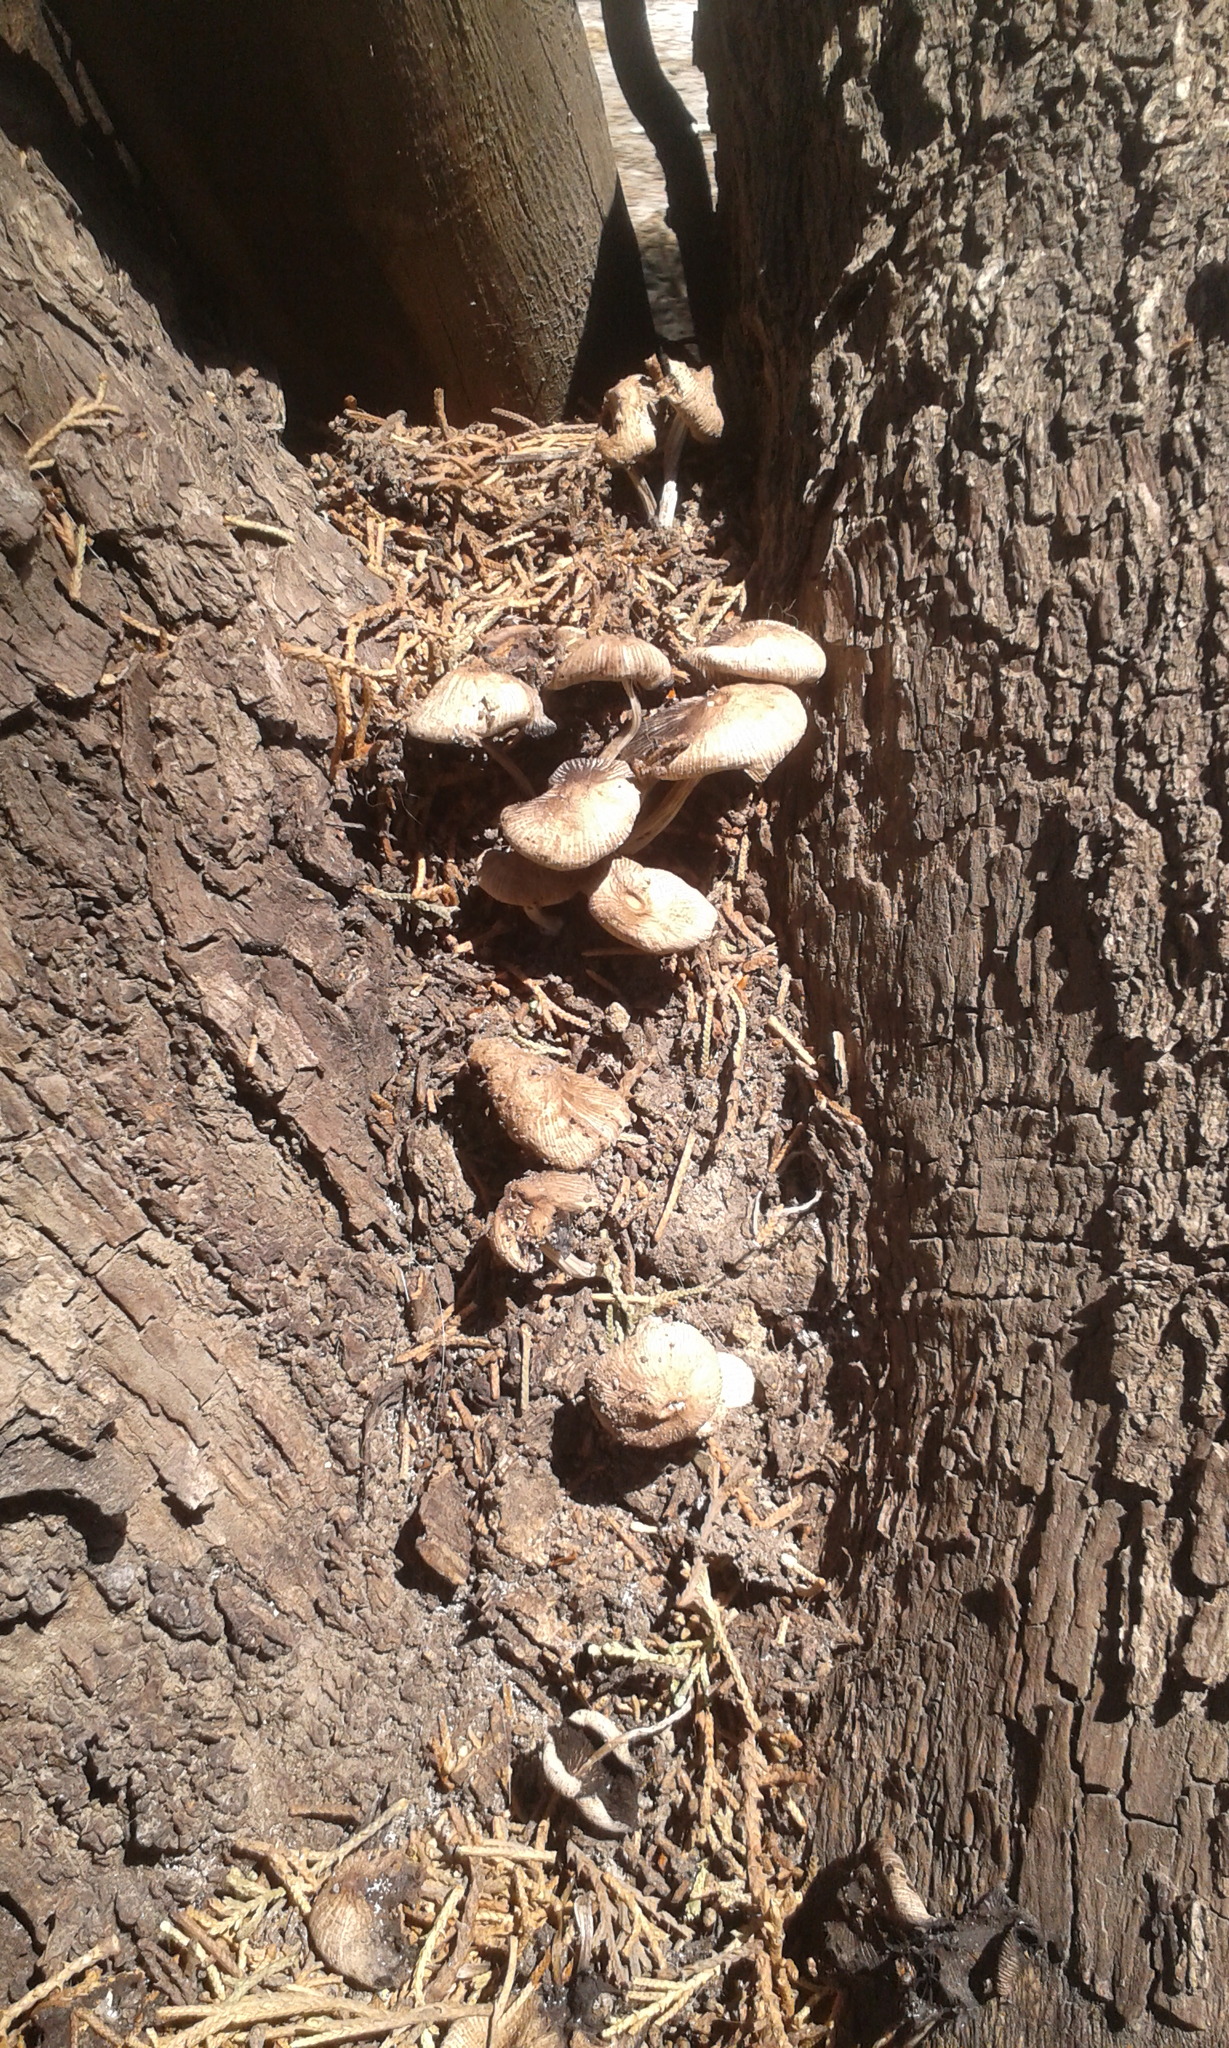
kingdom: Fungi
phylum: Basidiomycota
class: Agaricomycetes
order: Agaricales
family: Psathyrellaceae
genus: Coprinellus
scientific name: Coprinellus micaceus
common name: Glistening ink-cap
